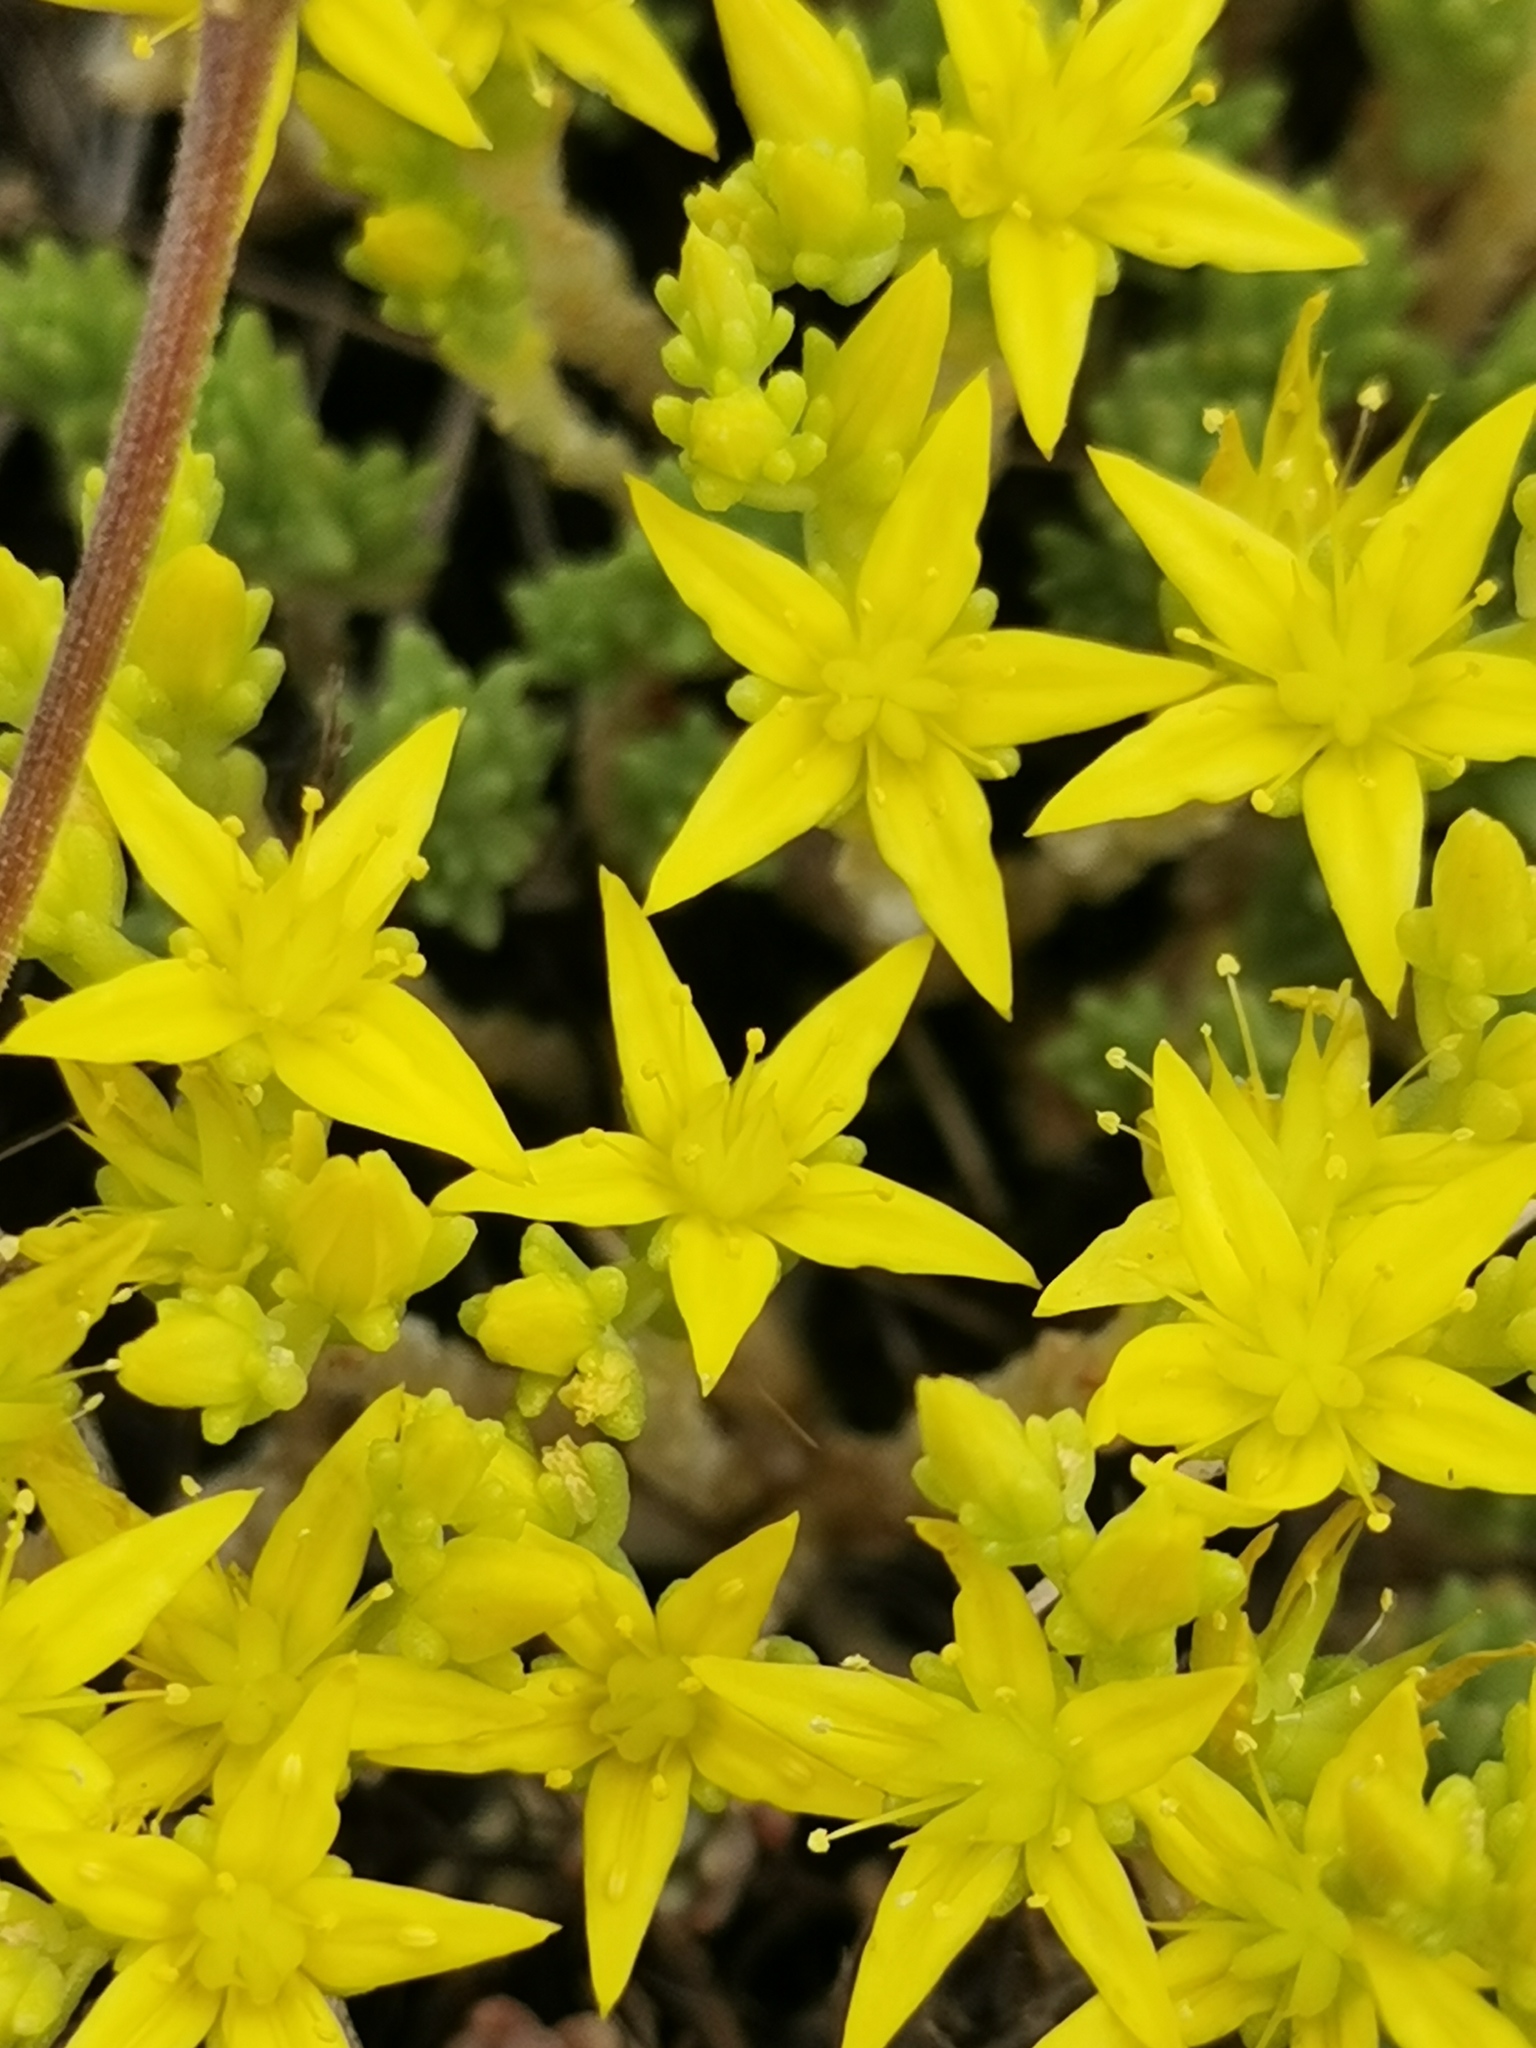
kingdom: Plantae
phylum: Tracheophyta
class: Magnoliopsida
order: Saxifragales
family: Crassulaceae
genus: Sedum
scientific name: Sedum acre
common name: Biting stonecrop
